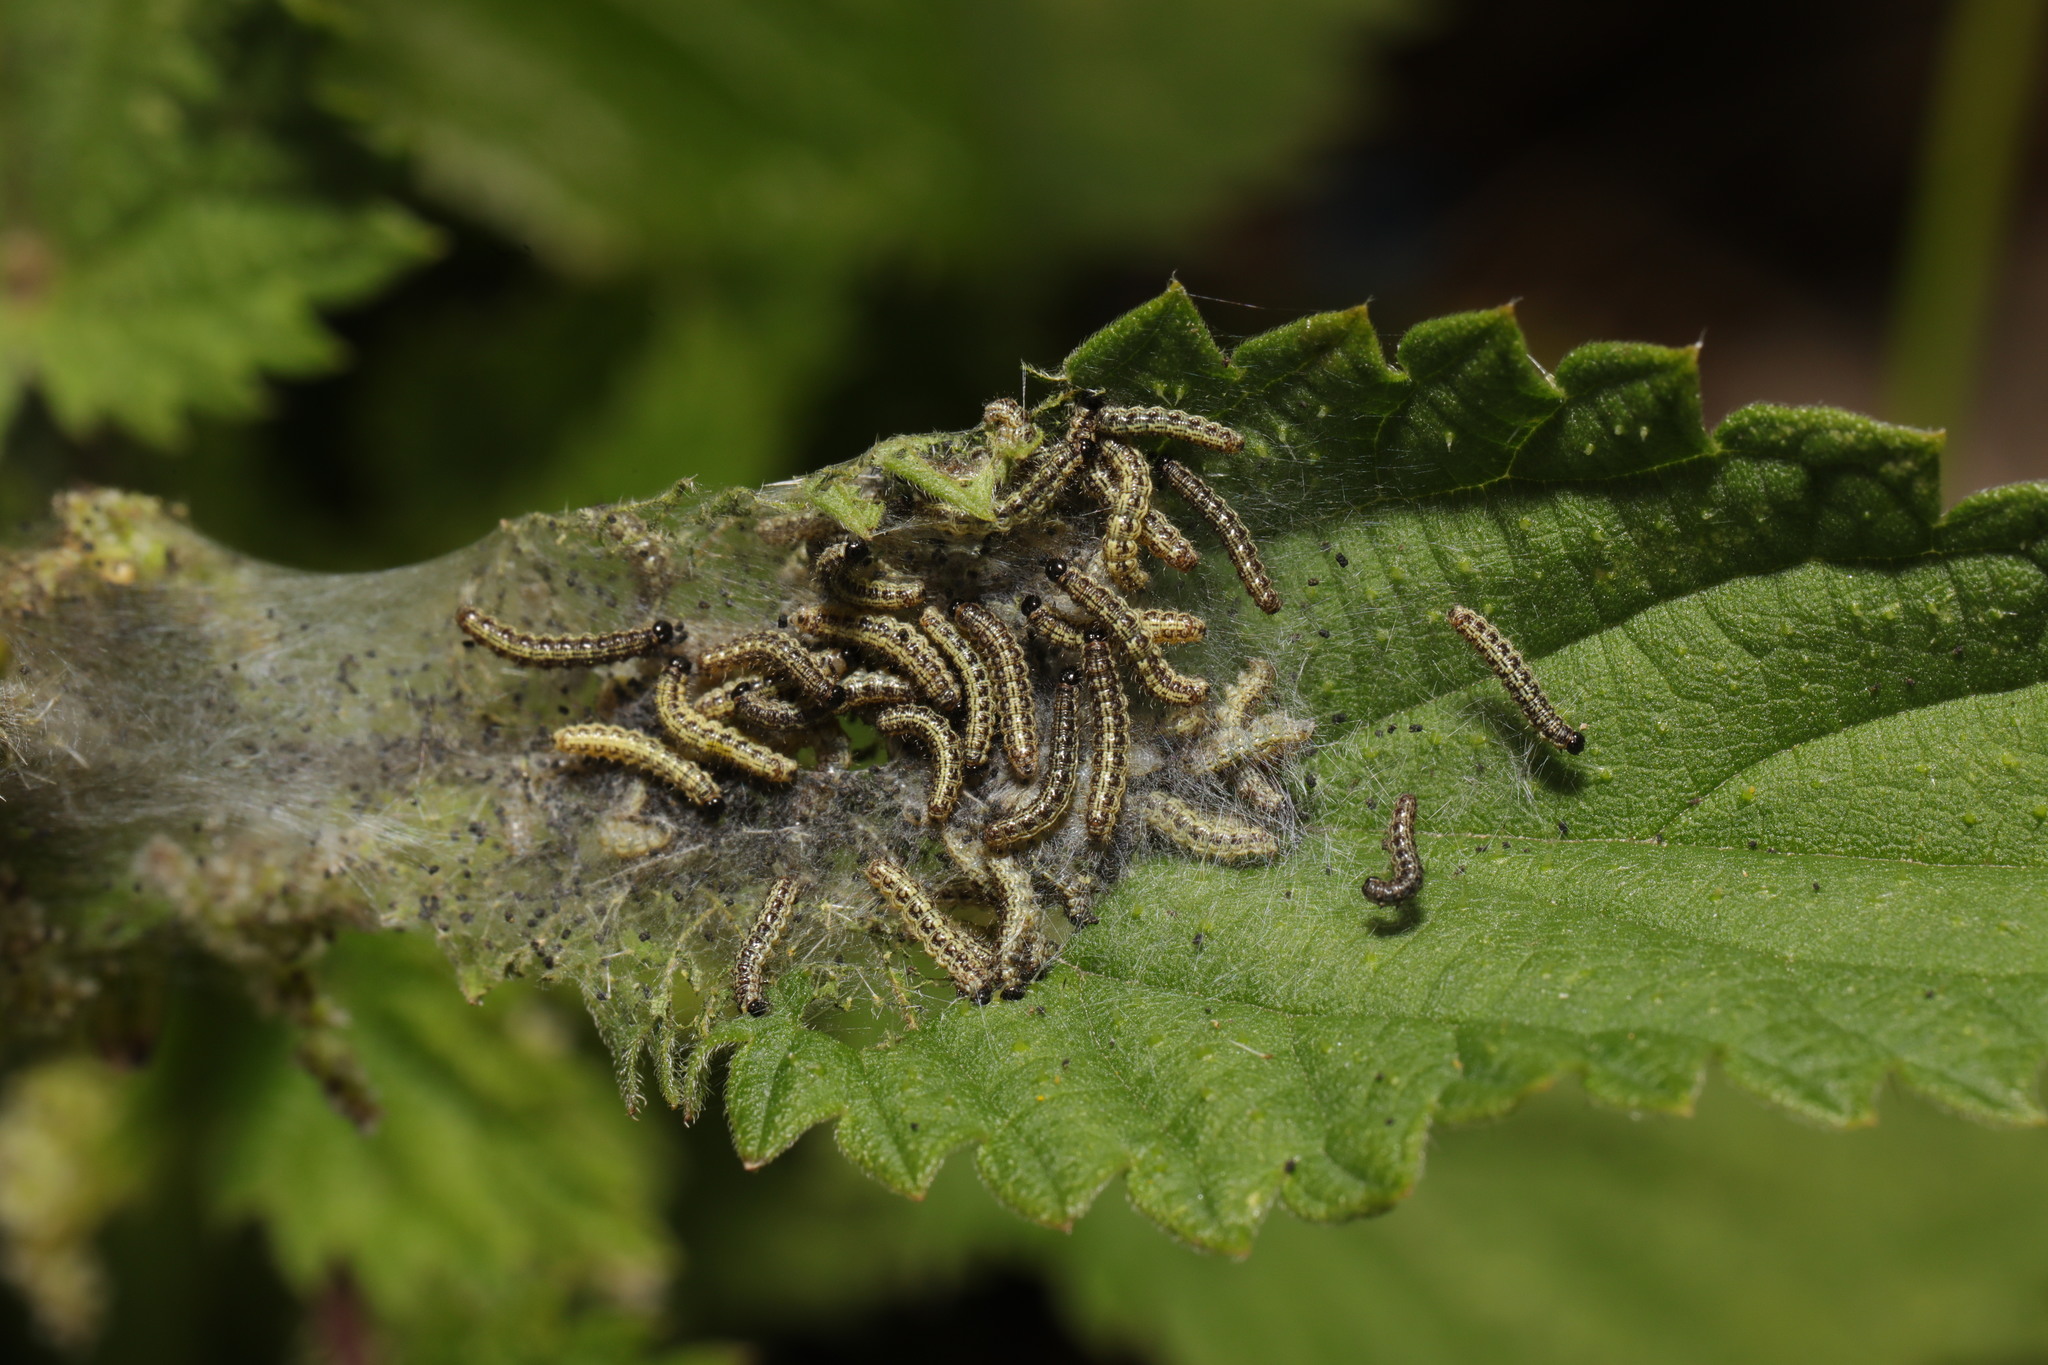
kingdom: Animalia
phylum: Arthropoda
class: Insecta
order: Lepidoptera
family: Nymphalidae
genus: Aglais
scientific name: Aglais urticae
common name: Small tortoiseshell
